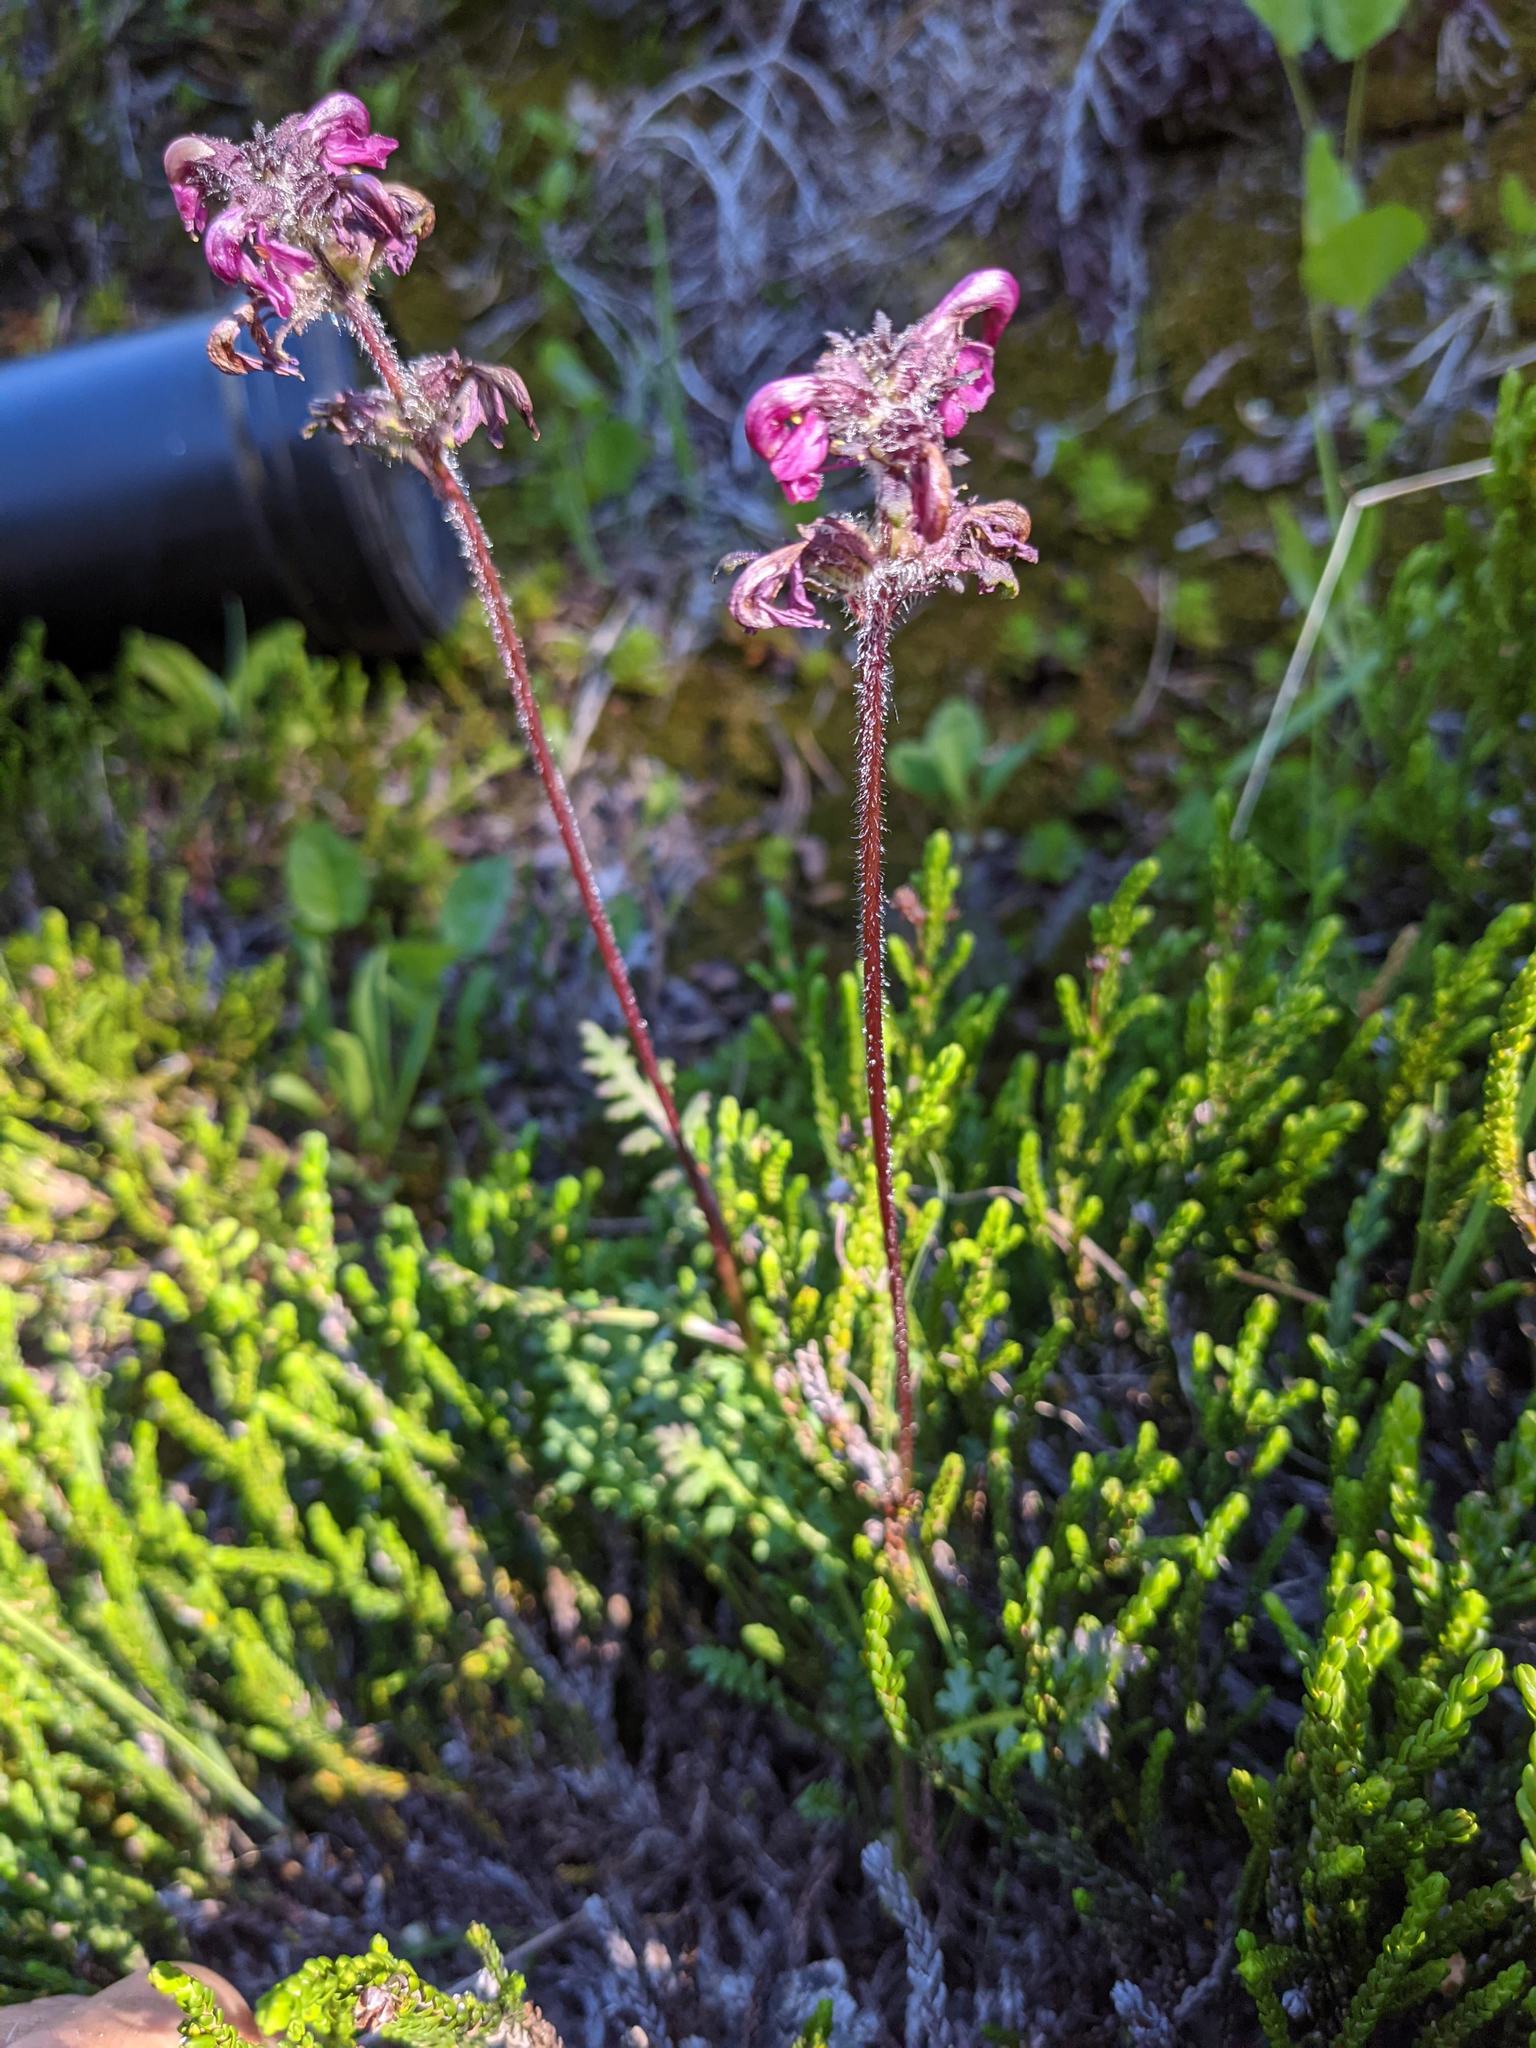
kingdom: Plantae
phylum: Tracheophyta
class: Magnoliopsida
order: Lamiales
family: Orobanchaceae
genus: Pedicularis
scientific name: Pedicularis ornithorhynchos
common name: Bird's-beak lousewort
